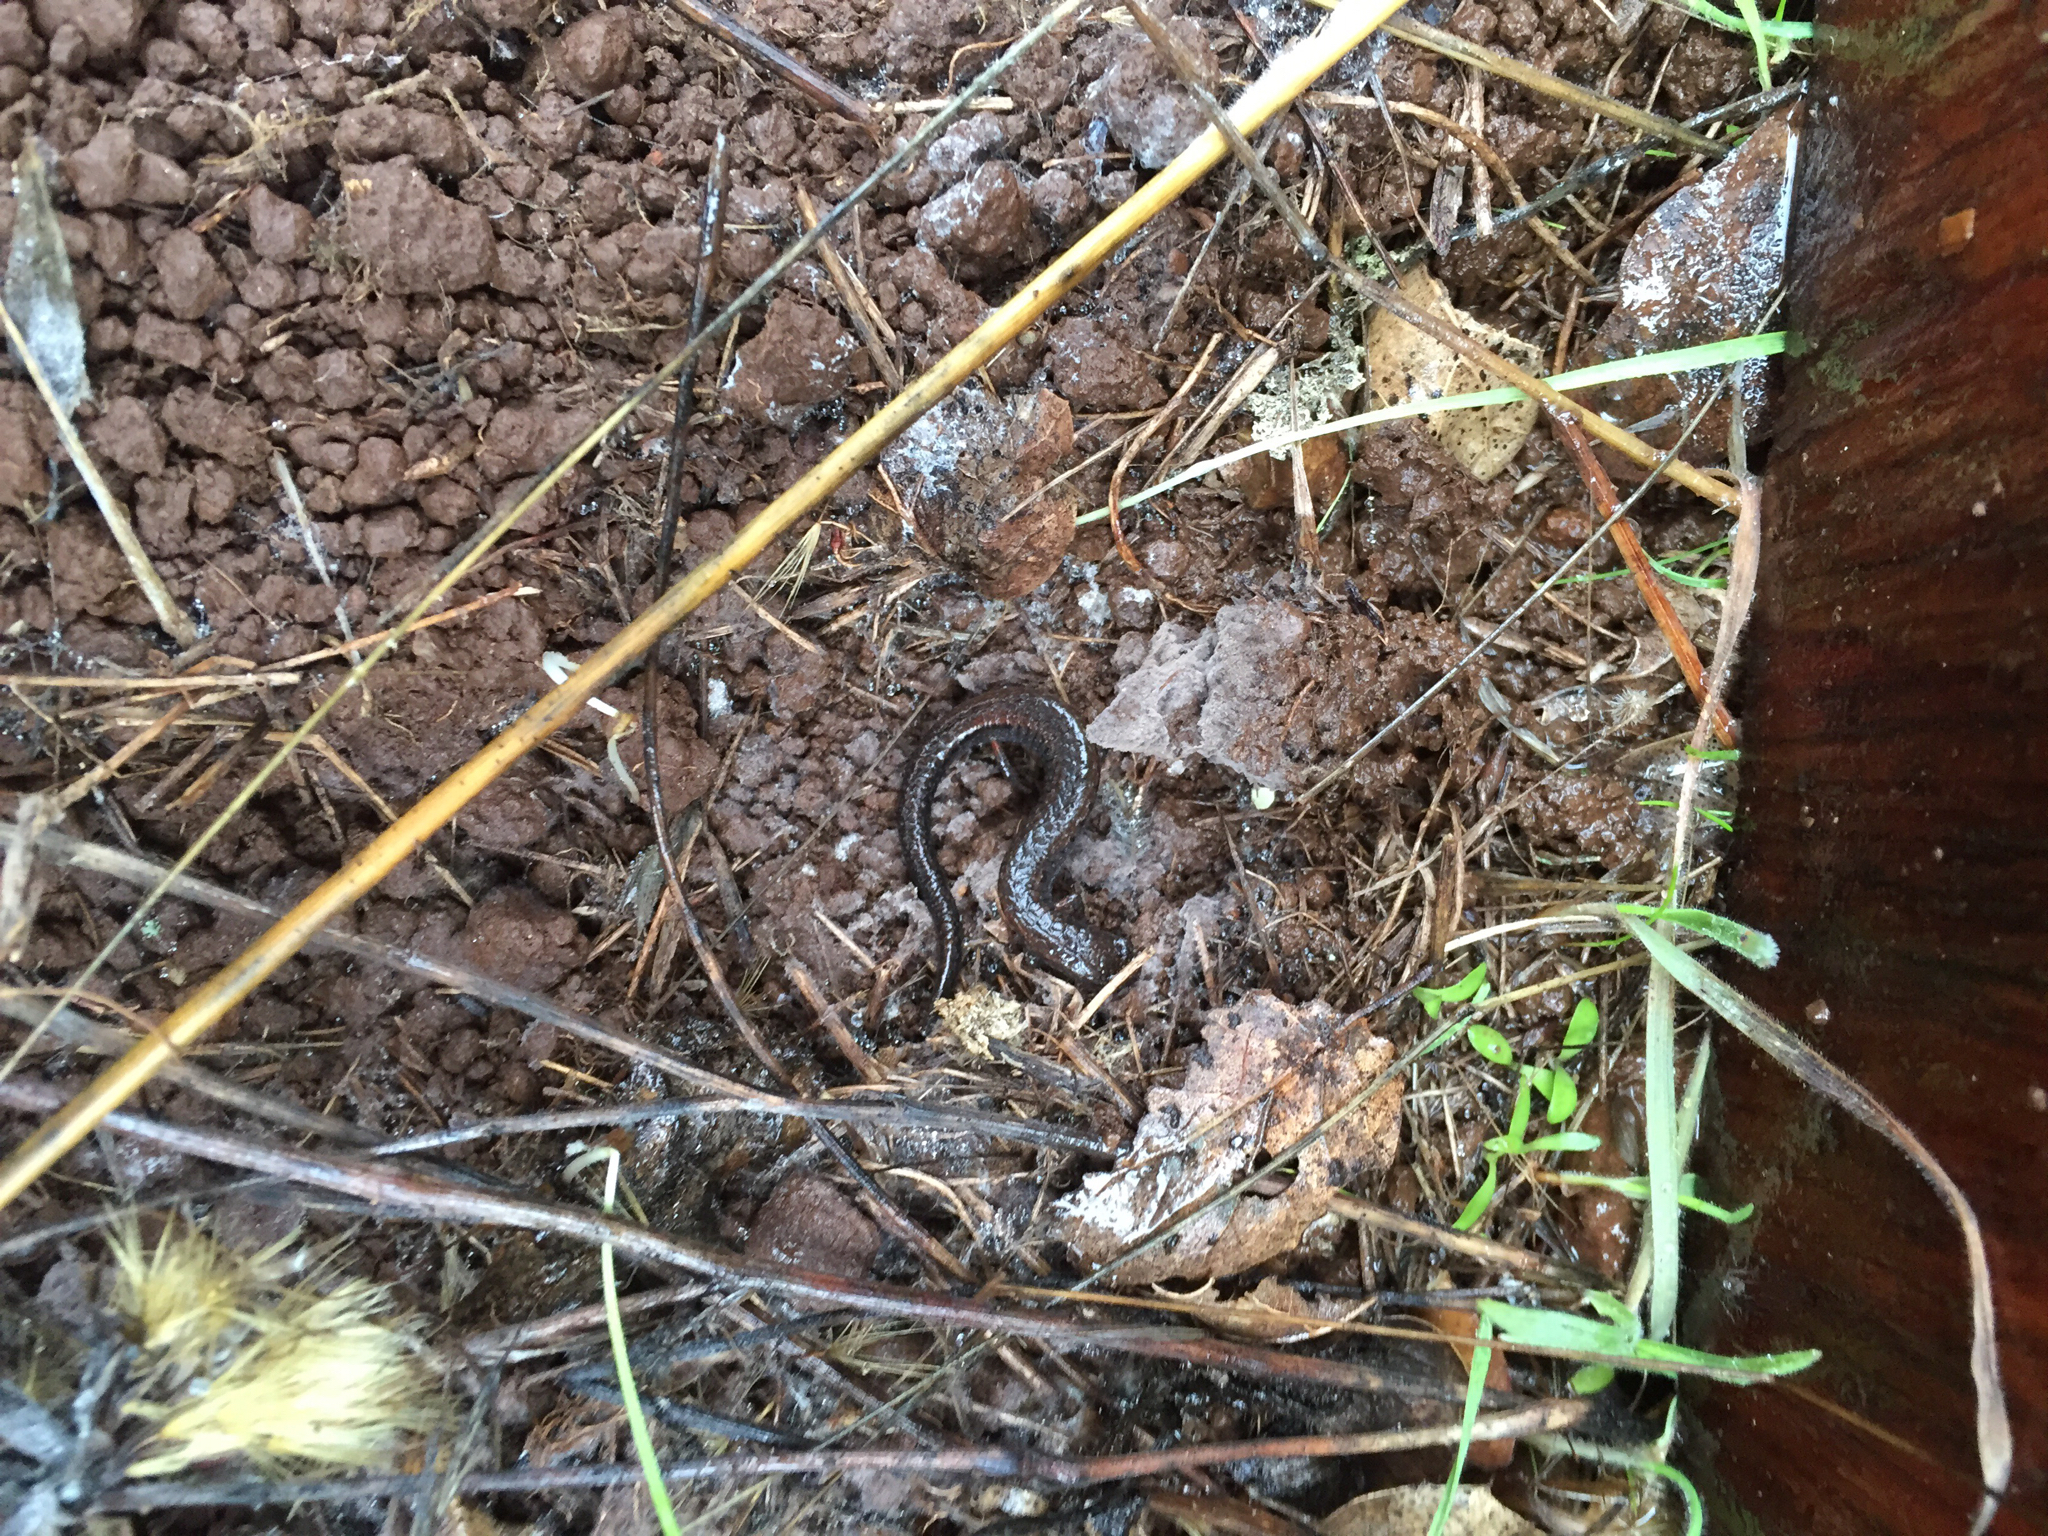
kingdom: Animalia
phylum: Chordata
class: Amphibia
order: Caudata
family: Plethodontidae
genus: Batrachoseps
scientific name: Batrachoseps attenuatus
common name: California slender salamander
